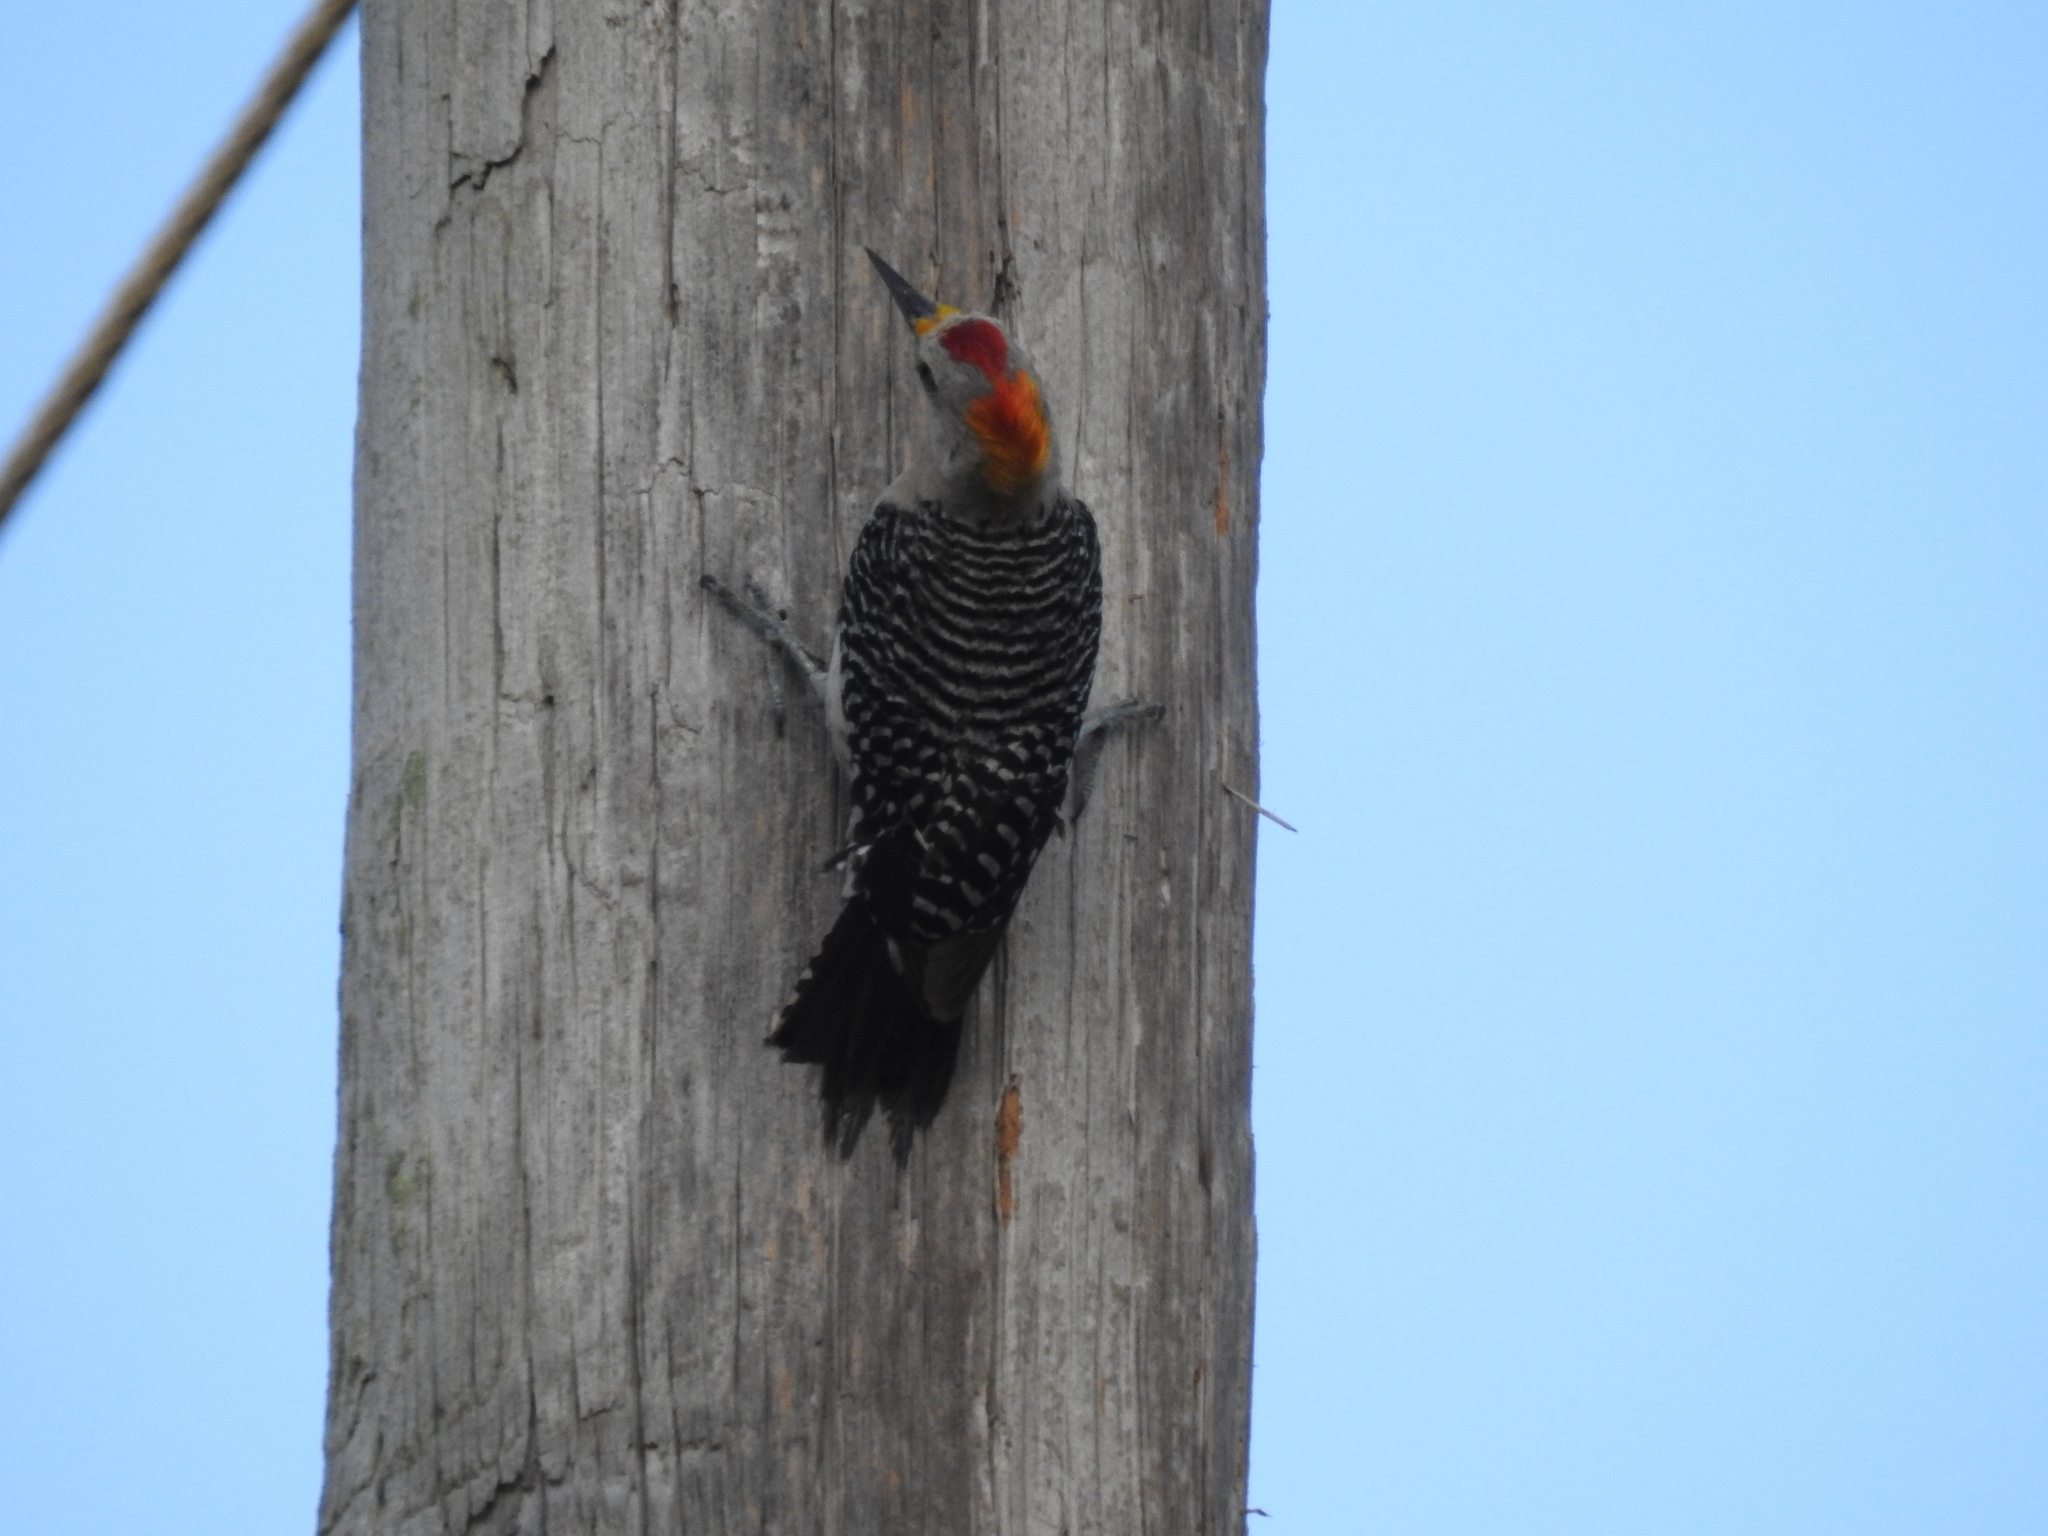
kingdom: Animalia
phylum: Chordata
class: Aves
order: Piciformes
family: Picidae
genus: Melanerpes
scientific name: Melanerpes aurifrons
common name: Golden-fronted woodpecker
